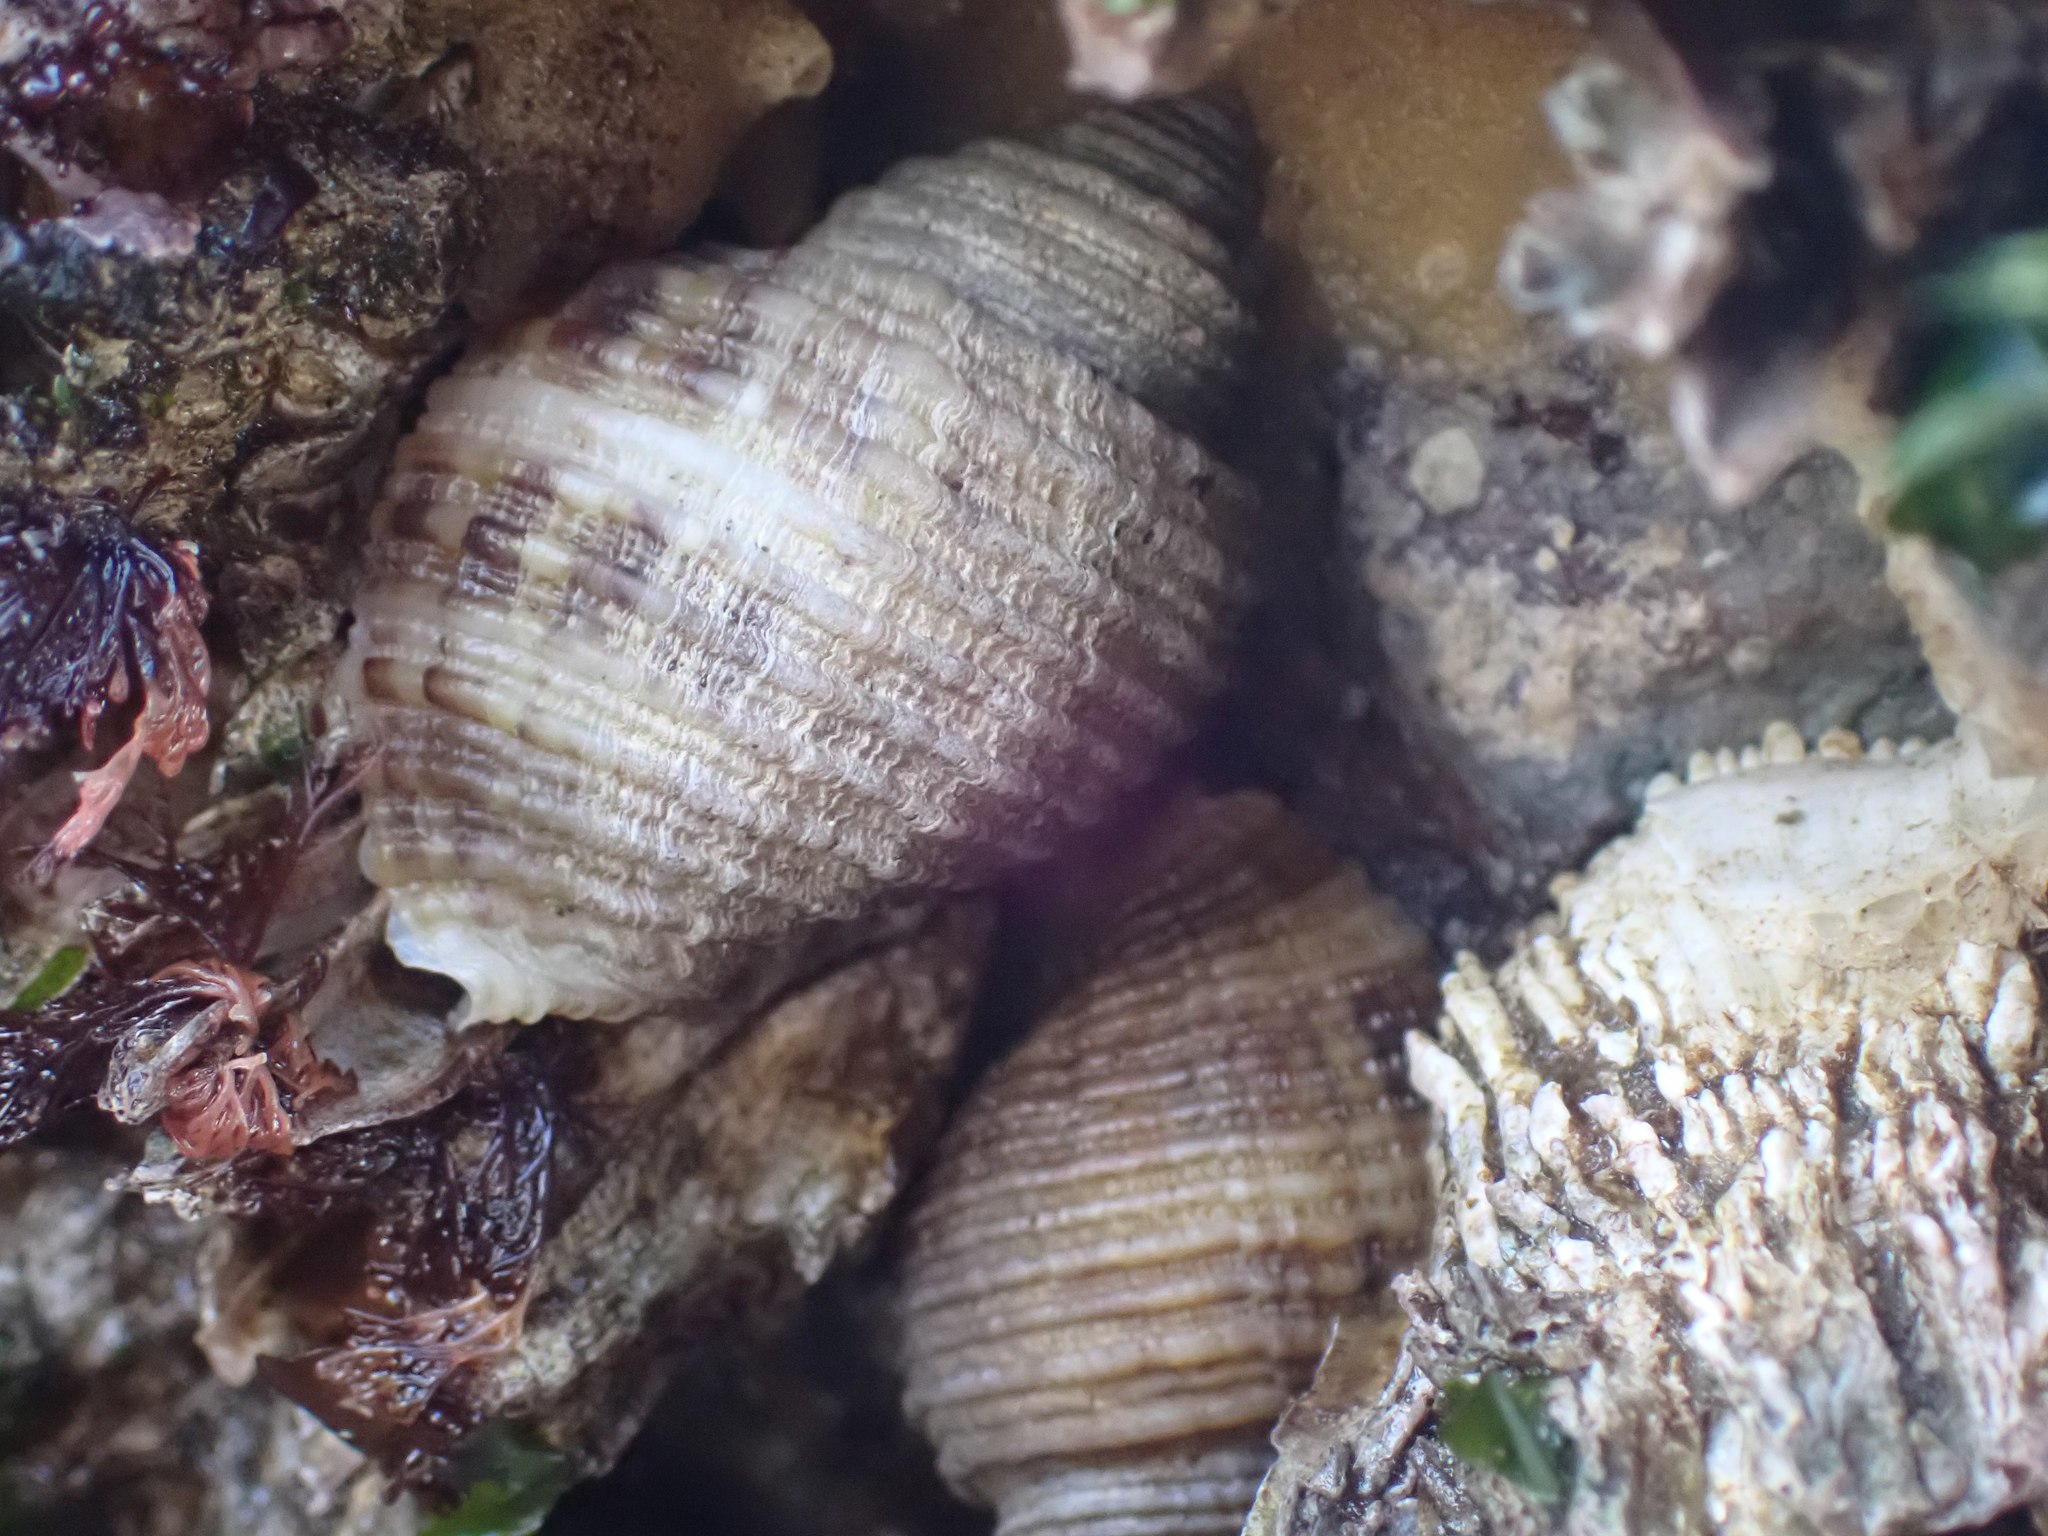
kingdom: Animalia
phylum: Mollusca
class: Gastropoda
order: Neogastropoda
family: Muricidae
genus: Nucella
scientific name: Nucella canaliculata
